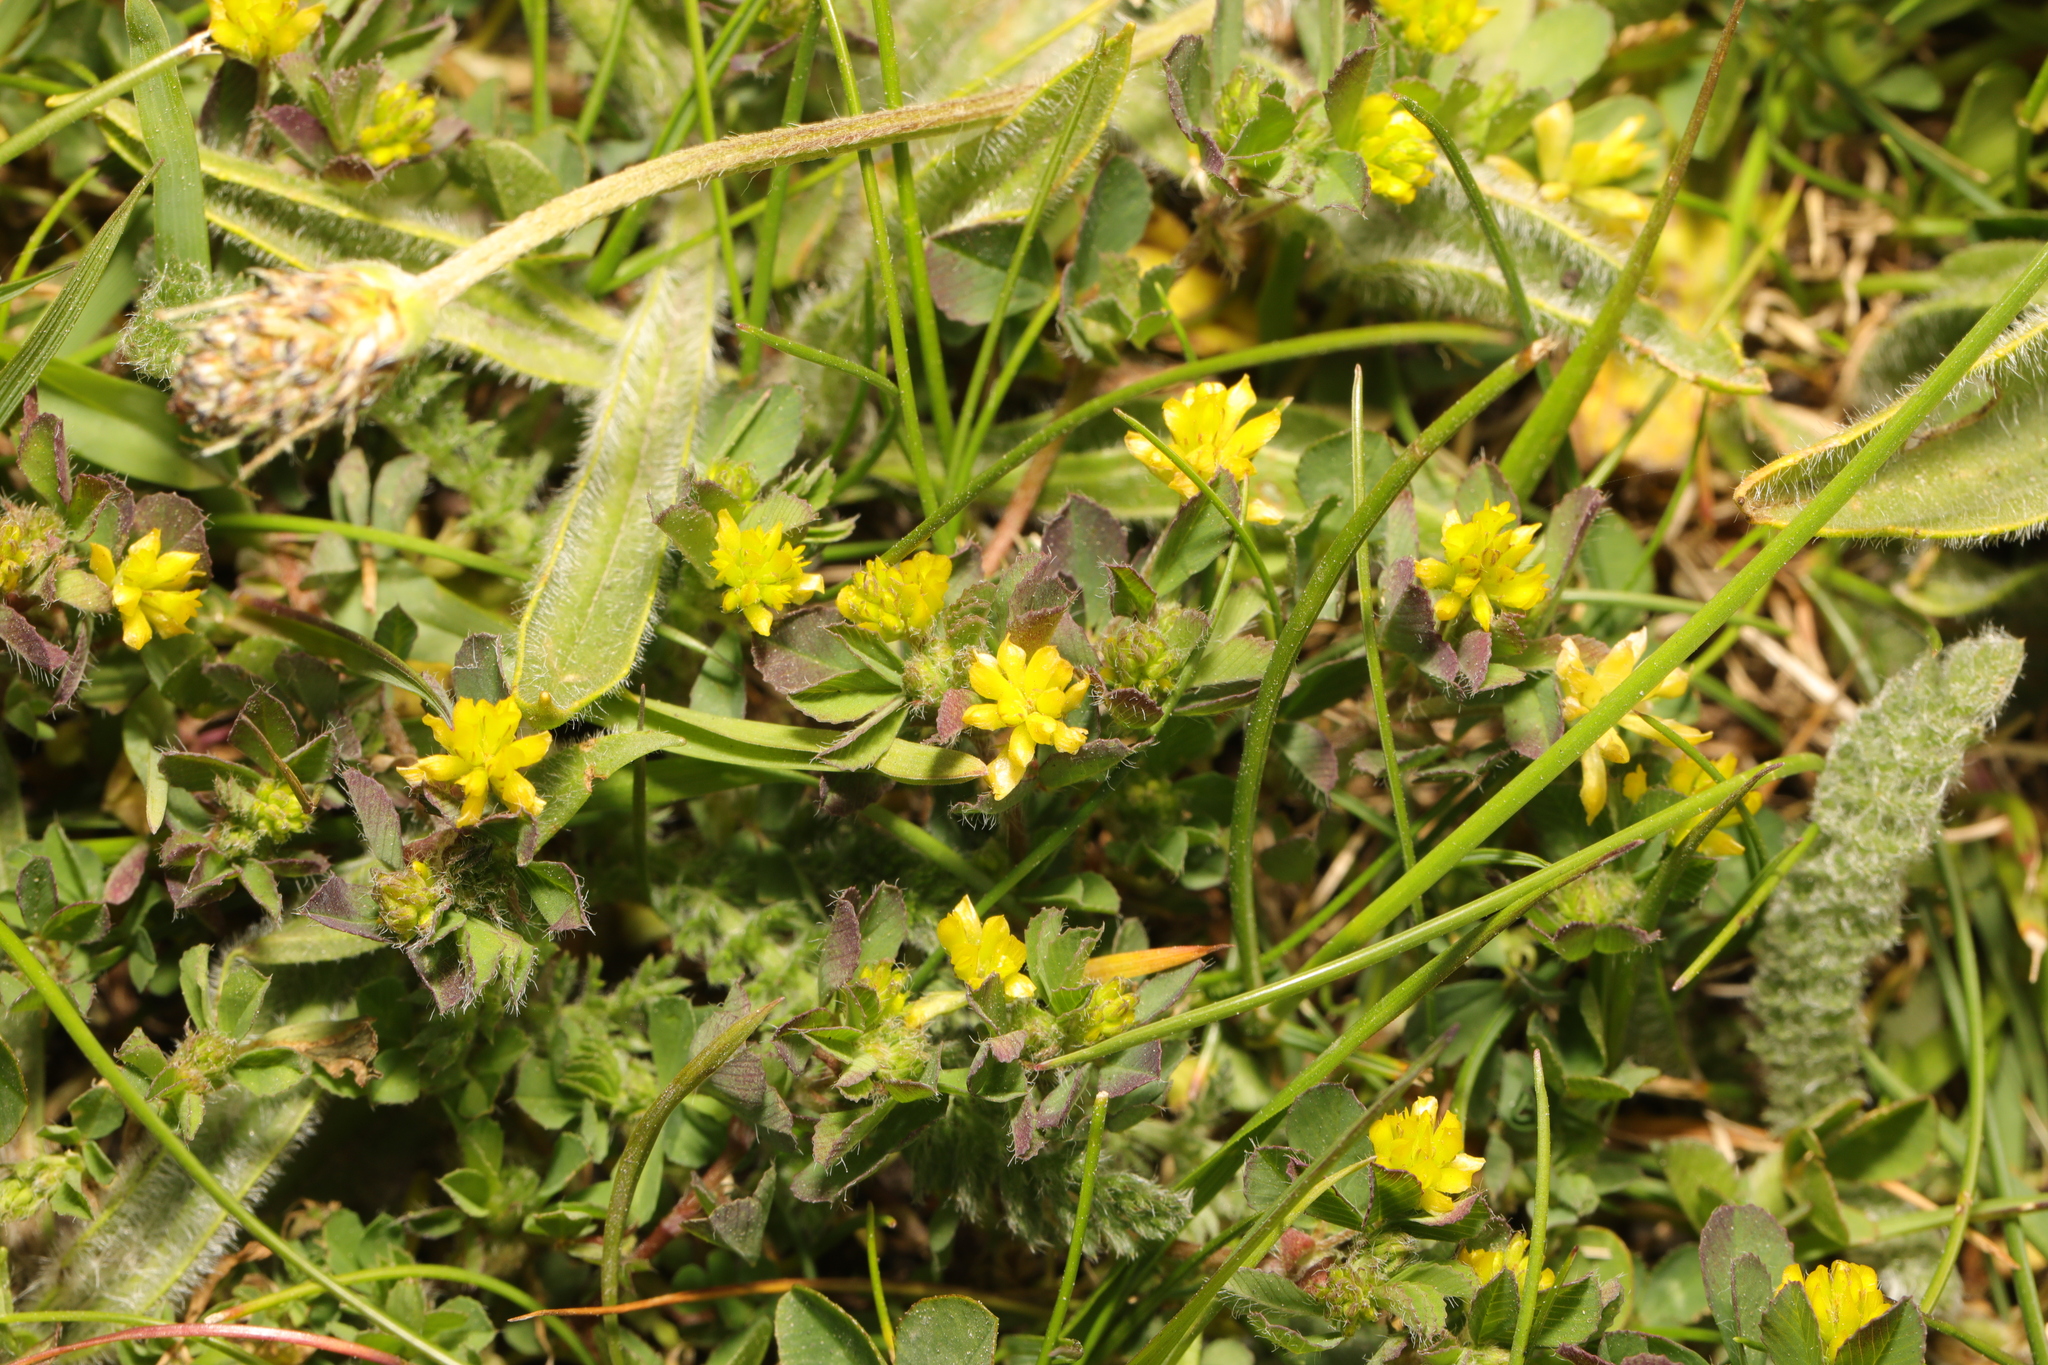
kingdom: Plantae
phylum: Tracheophyta
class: Magnoliopsida
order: Fabales
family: Fabaceae
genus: Trifolium
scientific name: Trifolium dubium
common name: Suckling clover
